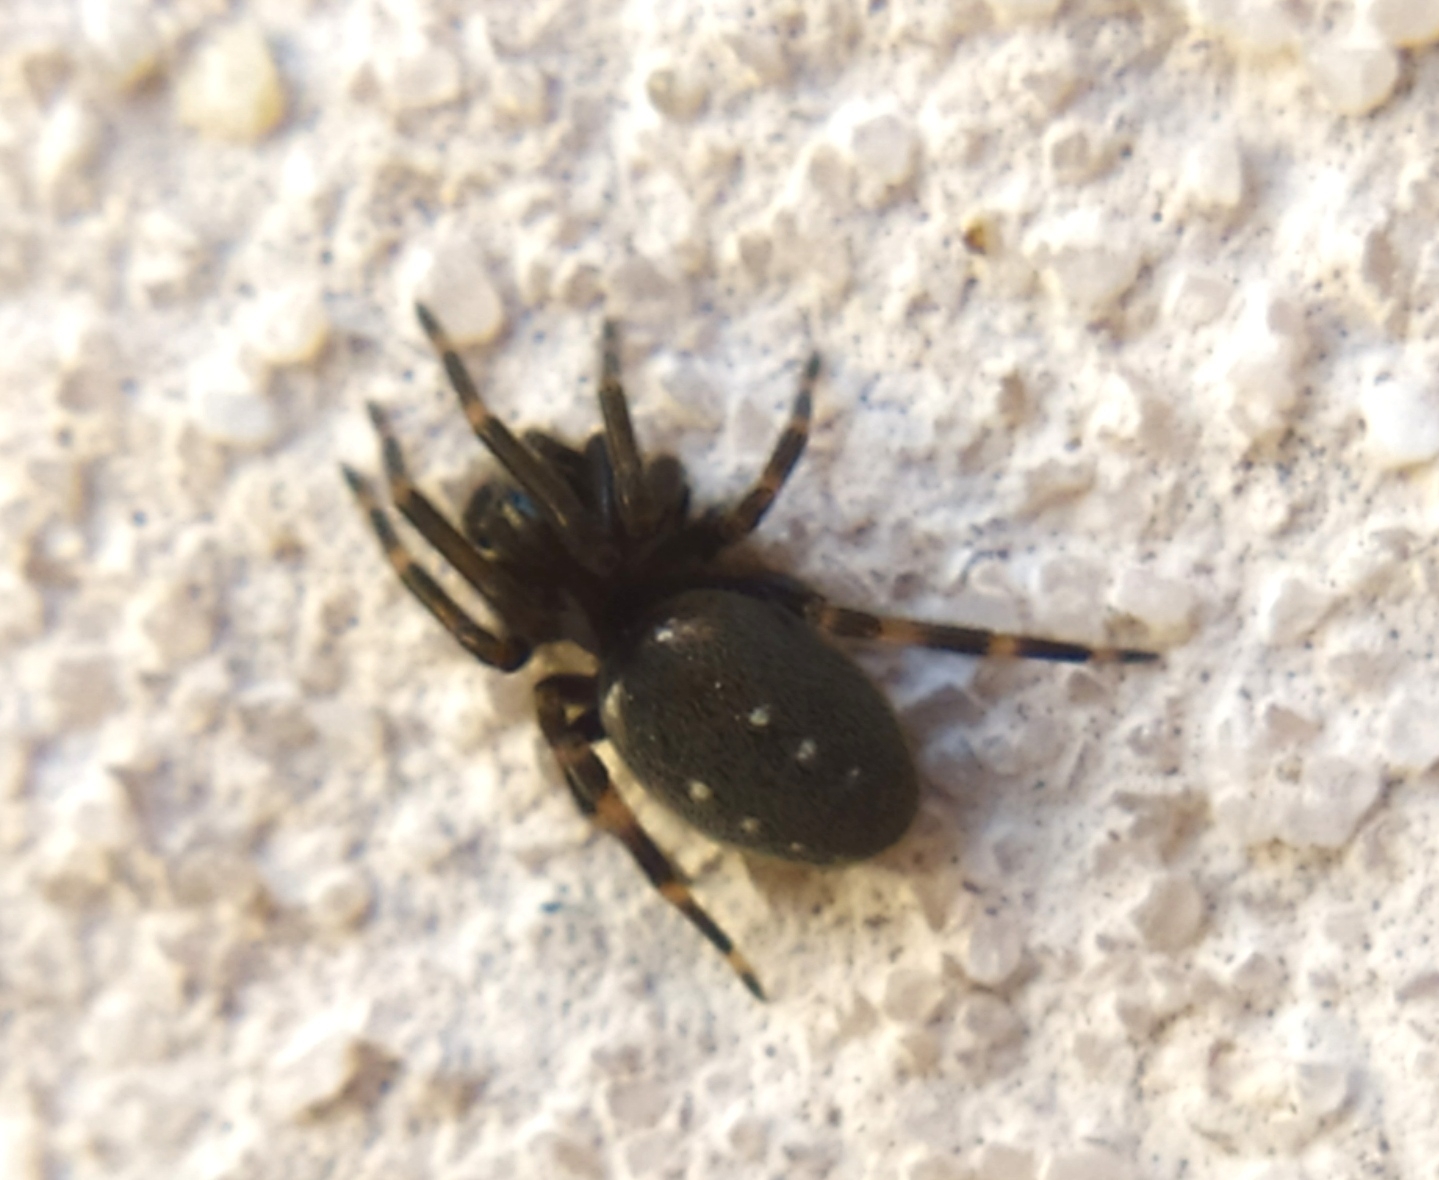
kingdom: Animalia
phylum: Arthropoda
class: Arachnida
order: Araneae
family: Titanoecidae
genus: Nurscia
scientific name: Nurscia albomaculata
